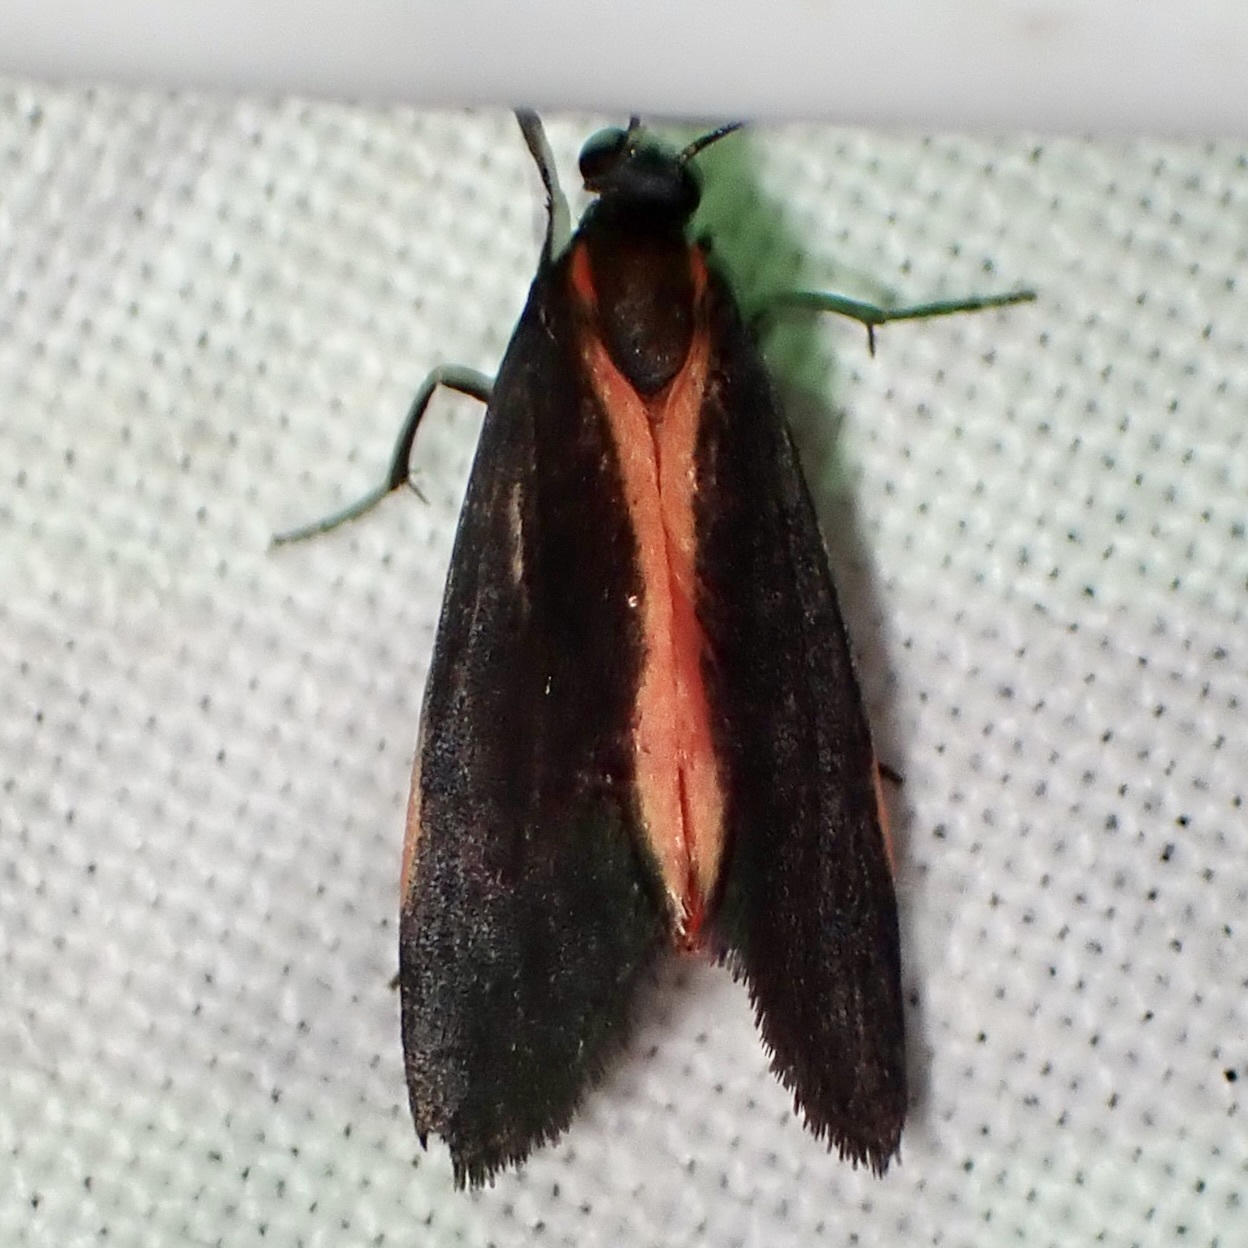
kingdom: Animalia
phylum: Arthropoda
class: Insecta
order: Lepidoptera
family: Erebidae
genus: Cisthene
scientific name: Cisthene juanita
